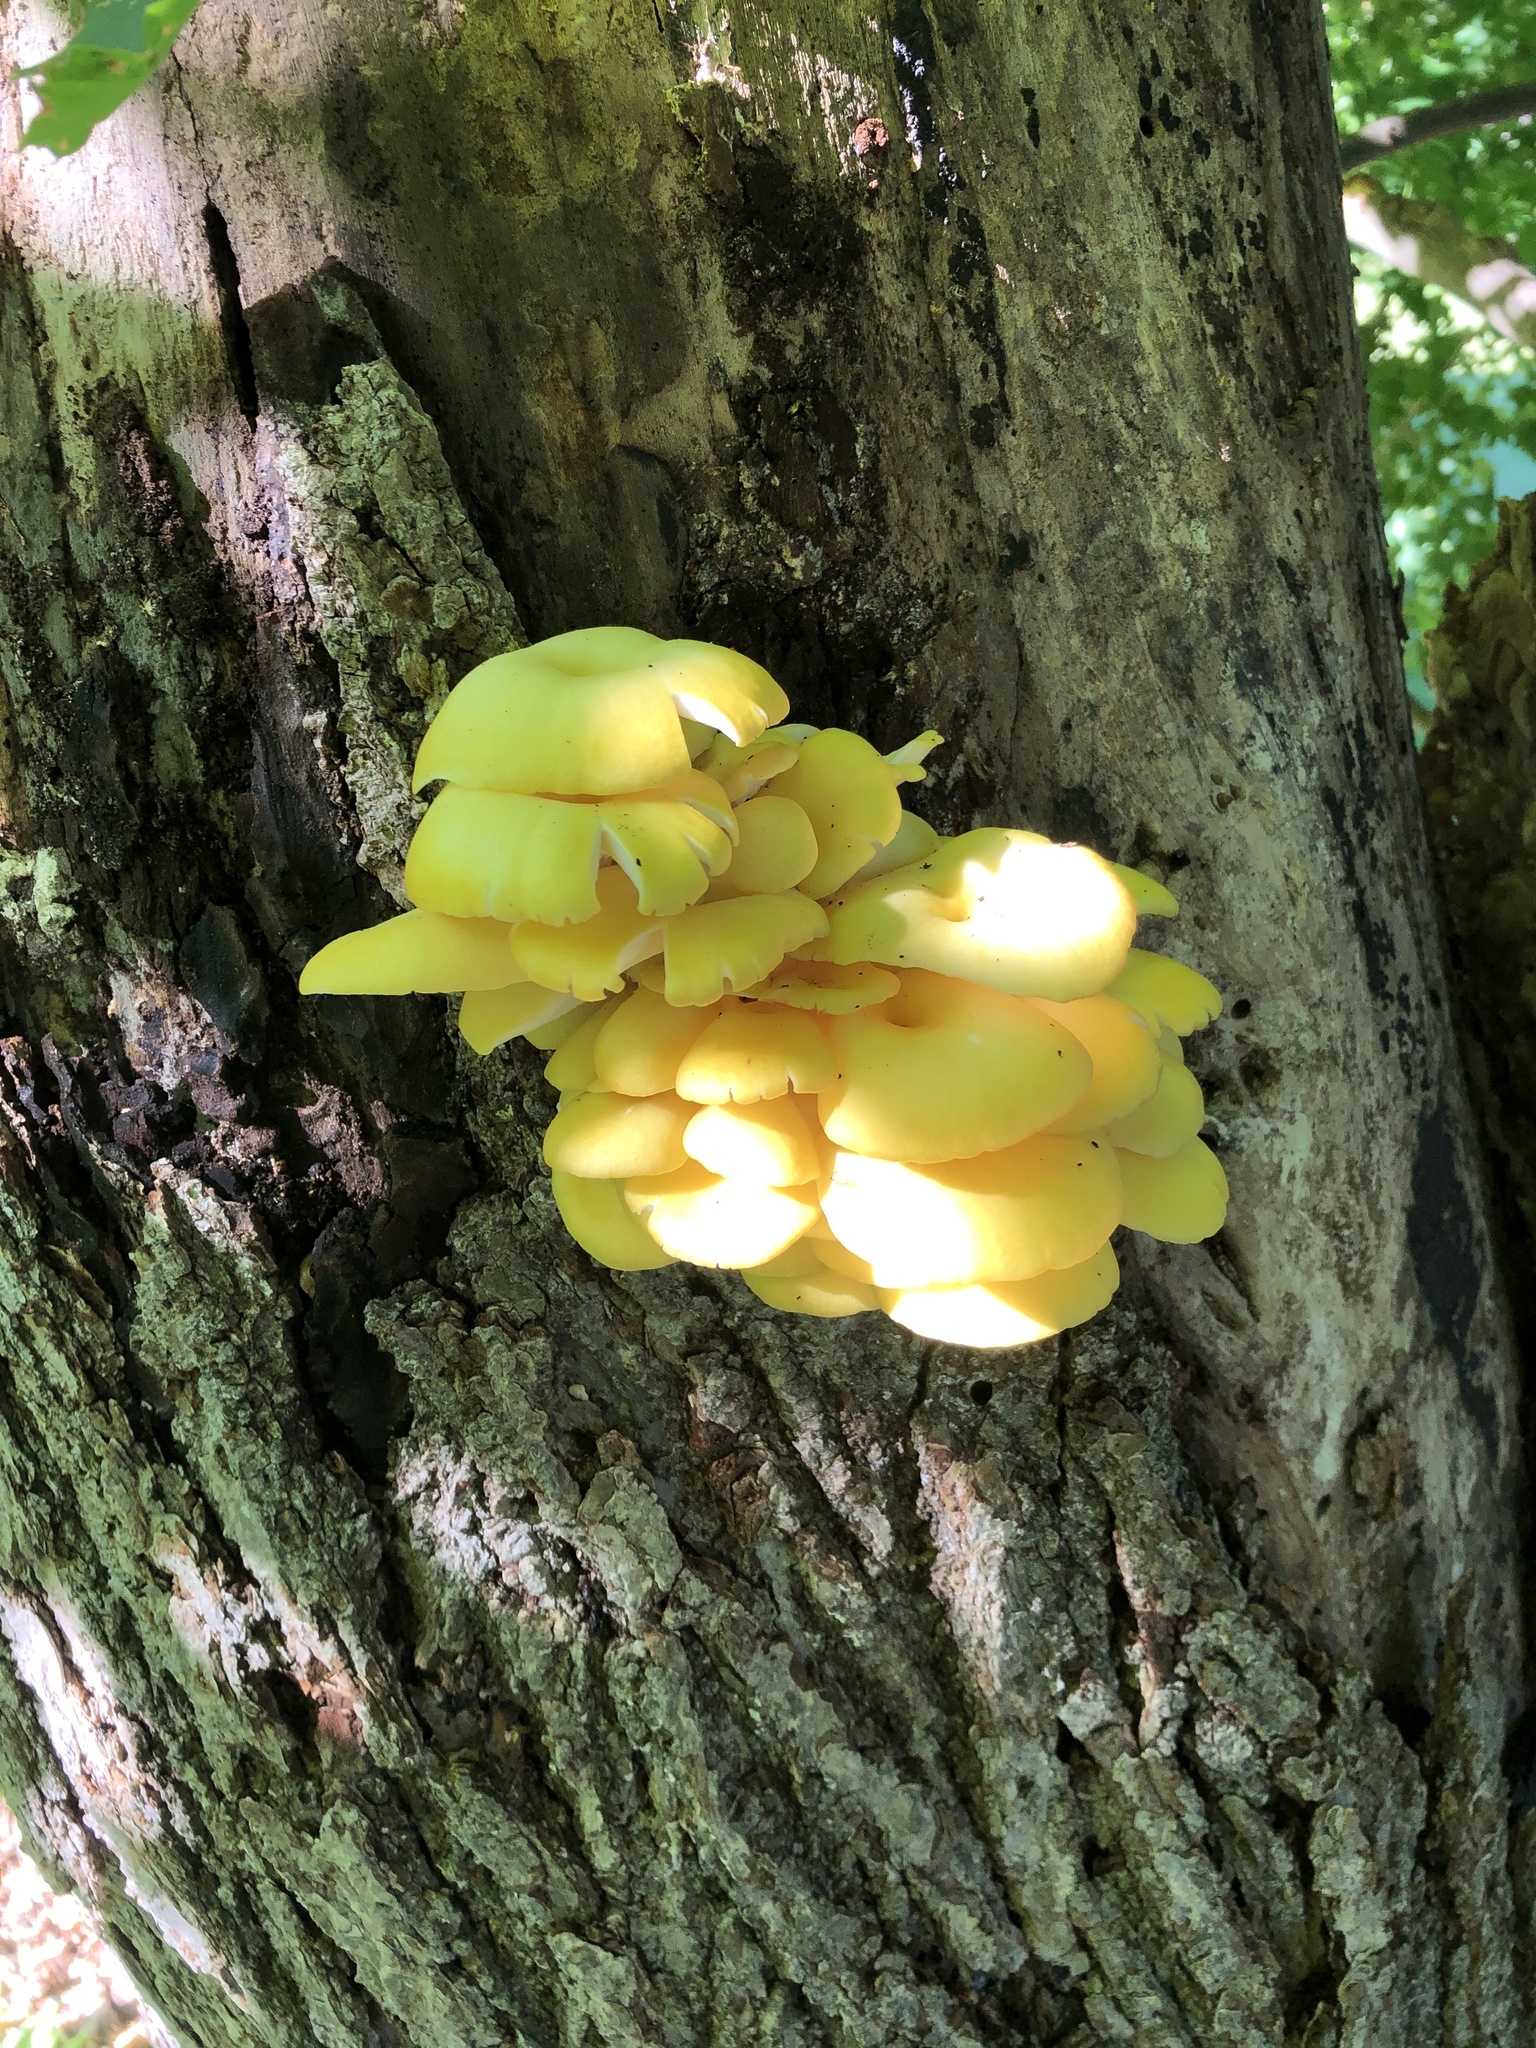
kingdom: Fungi
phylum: Basidiomycota
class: Agaricomycetes
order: Agaricales
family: Pleurotaceae
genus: Pleurotus
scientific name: Pleurotus citrinopileatus
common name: Golden oyster mushroom
